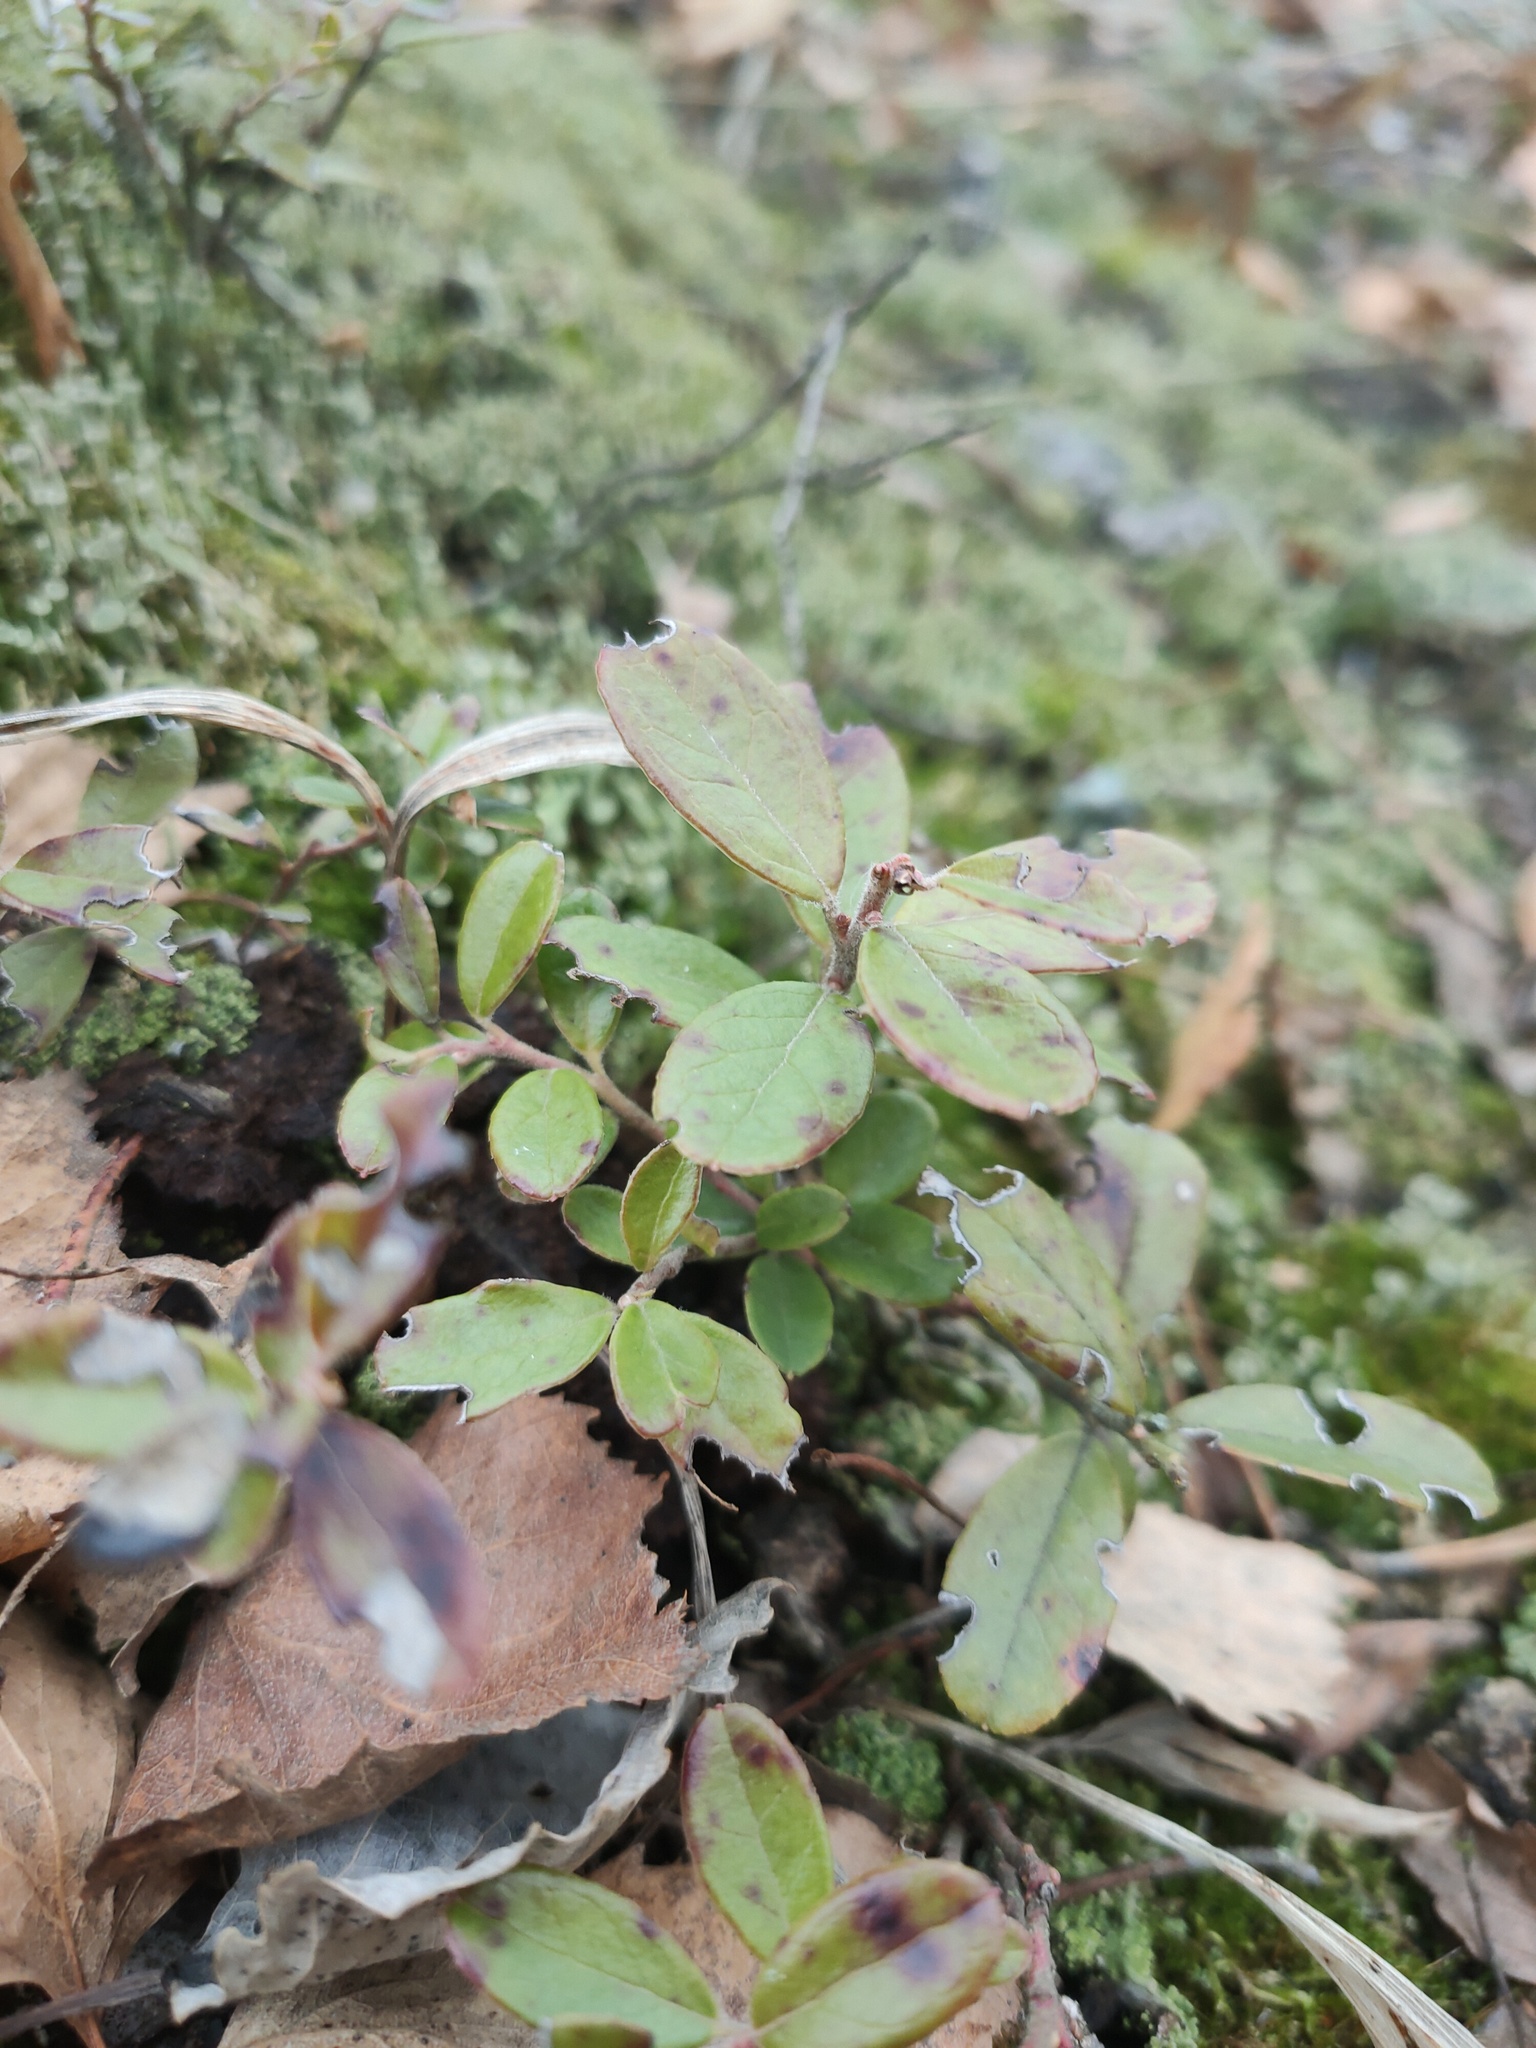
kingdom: Plantae
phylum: Tracheophyta
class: Magnoliopsida
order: Ericales
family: Ericaceae
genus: Vaccinium
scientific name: Vaccinium vitis-idaea
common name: Cowberry
